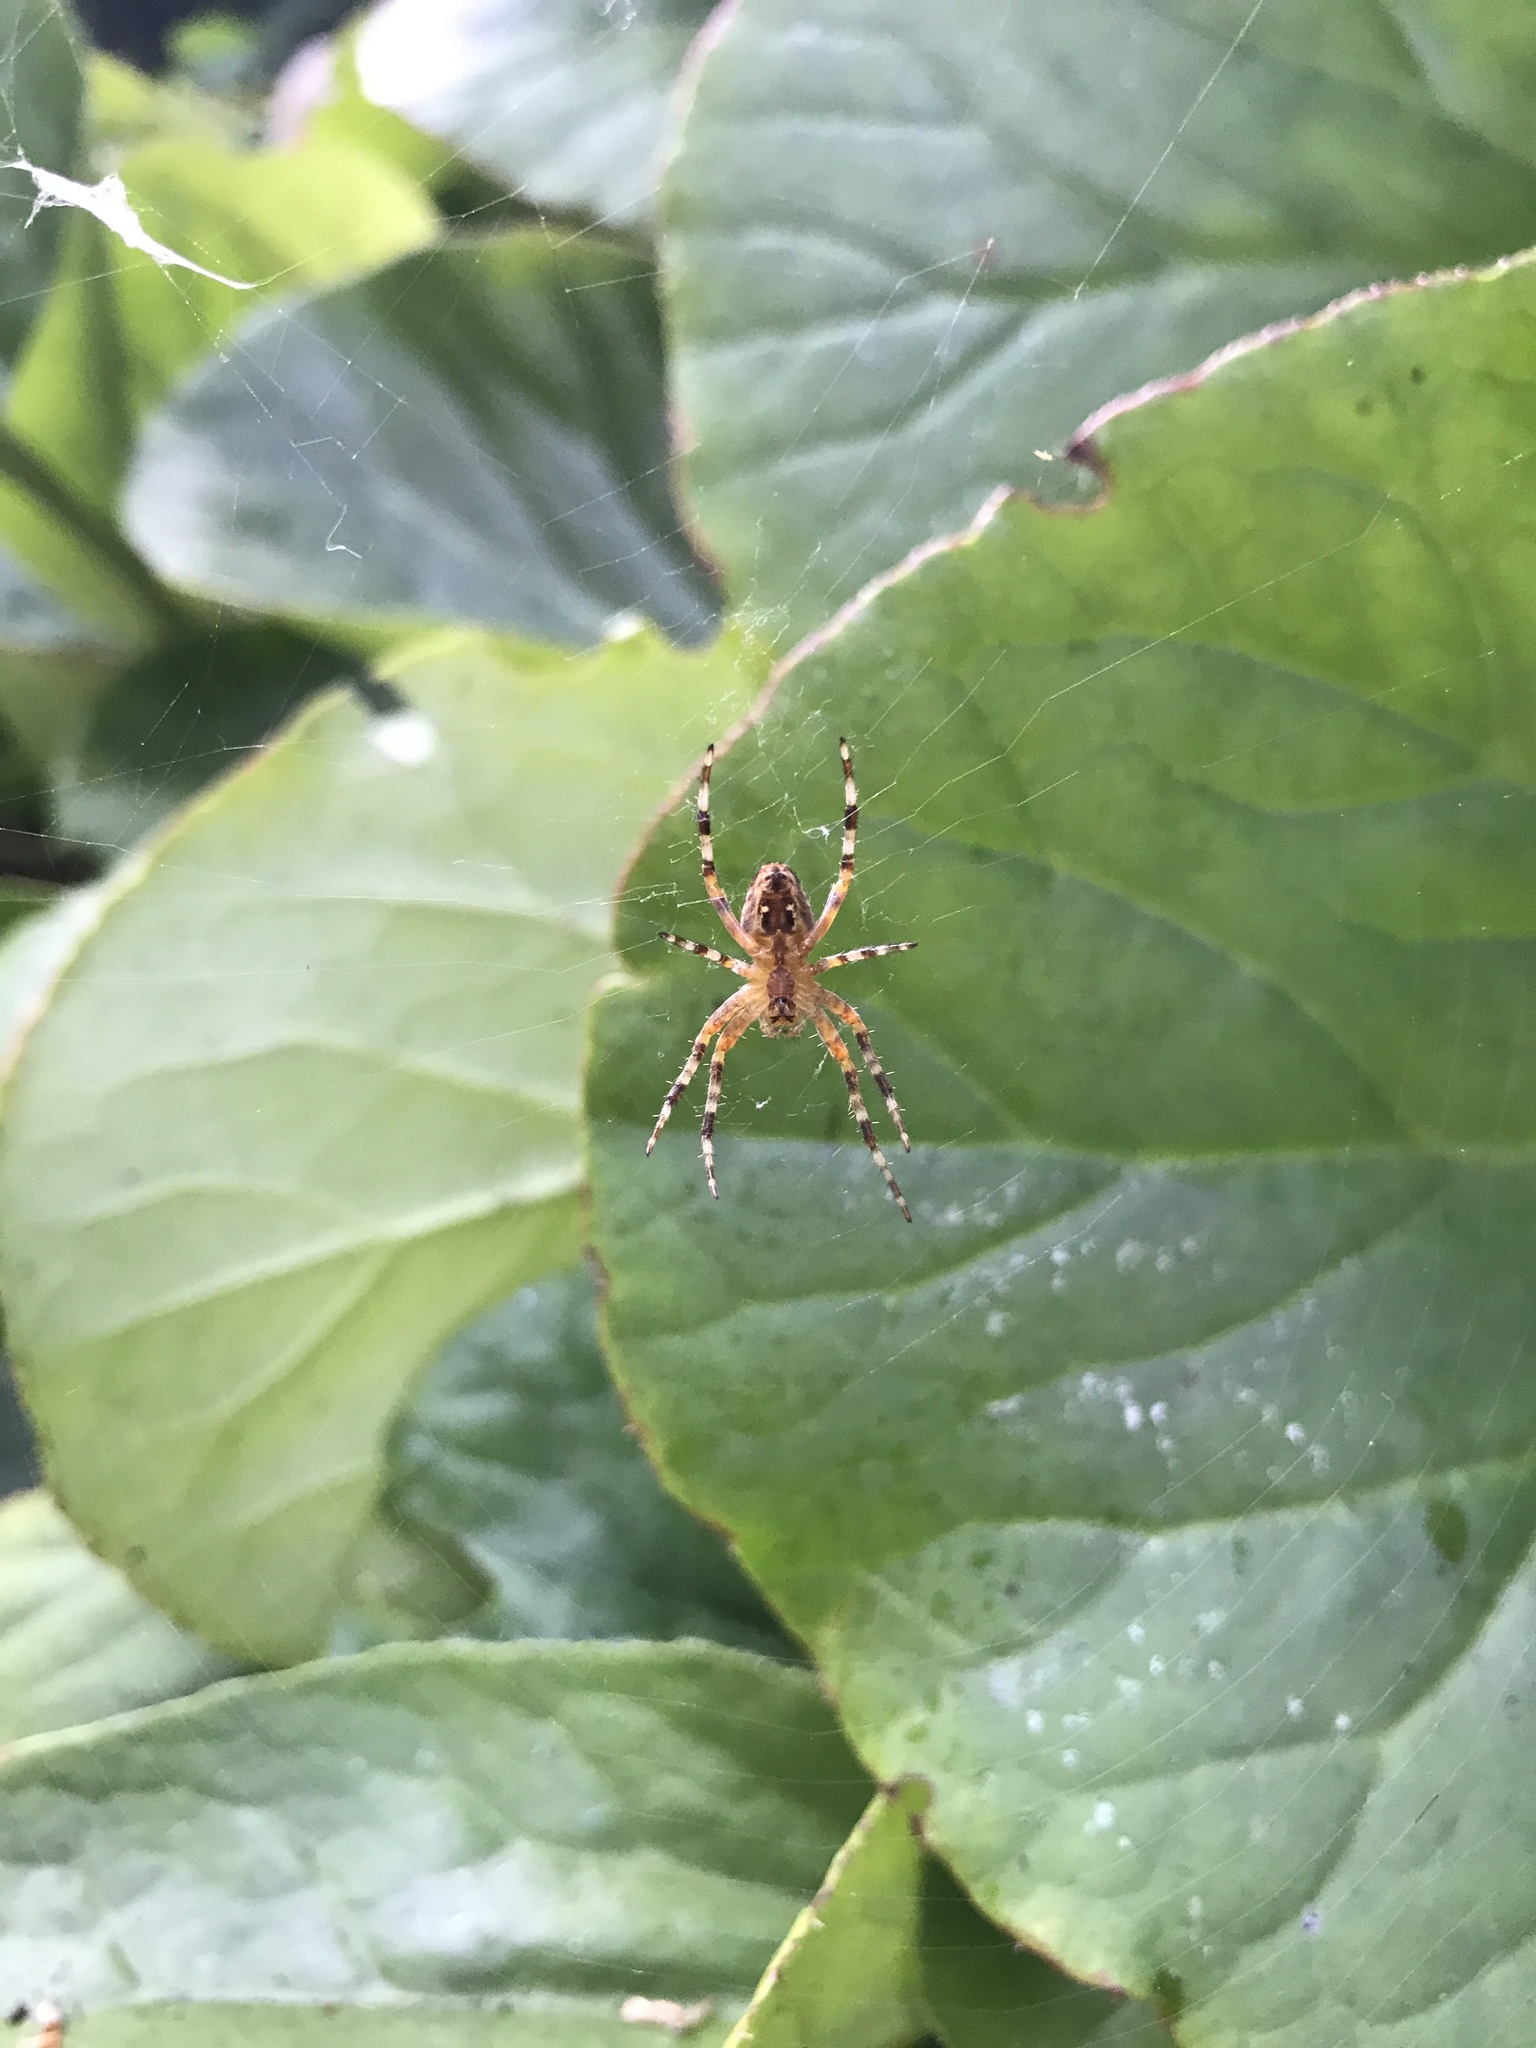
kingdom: Animalia
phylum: Arthropoda
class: Arachnida
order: Araneae
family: Araneidae
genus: Araneus
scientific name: Araneus diadematus
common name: Cross orbweaver
